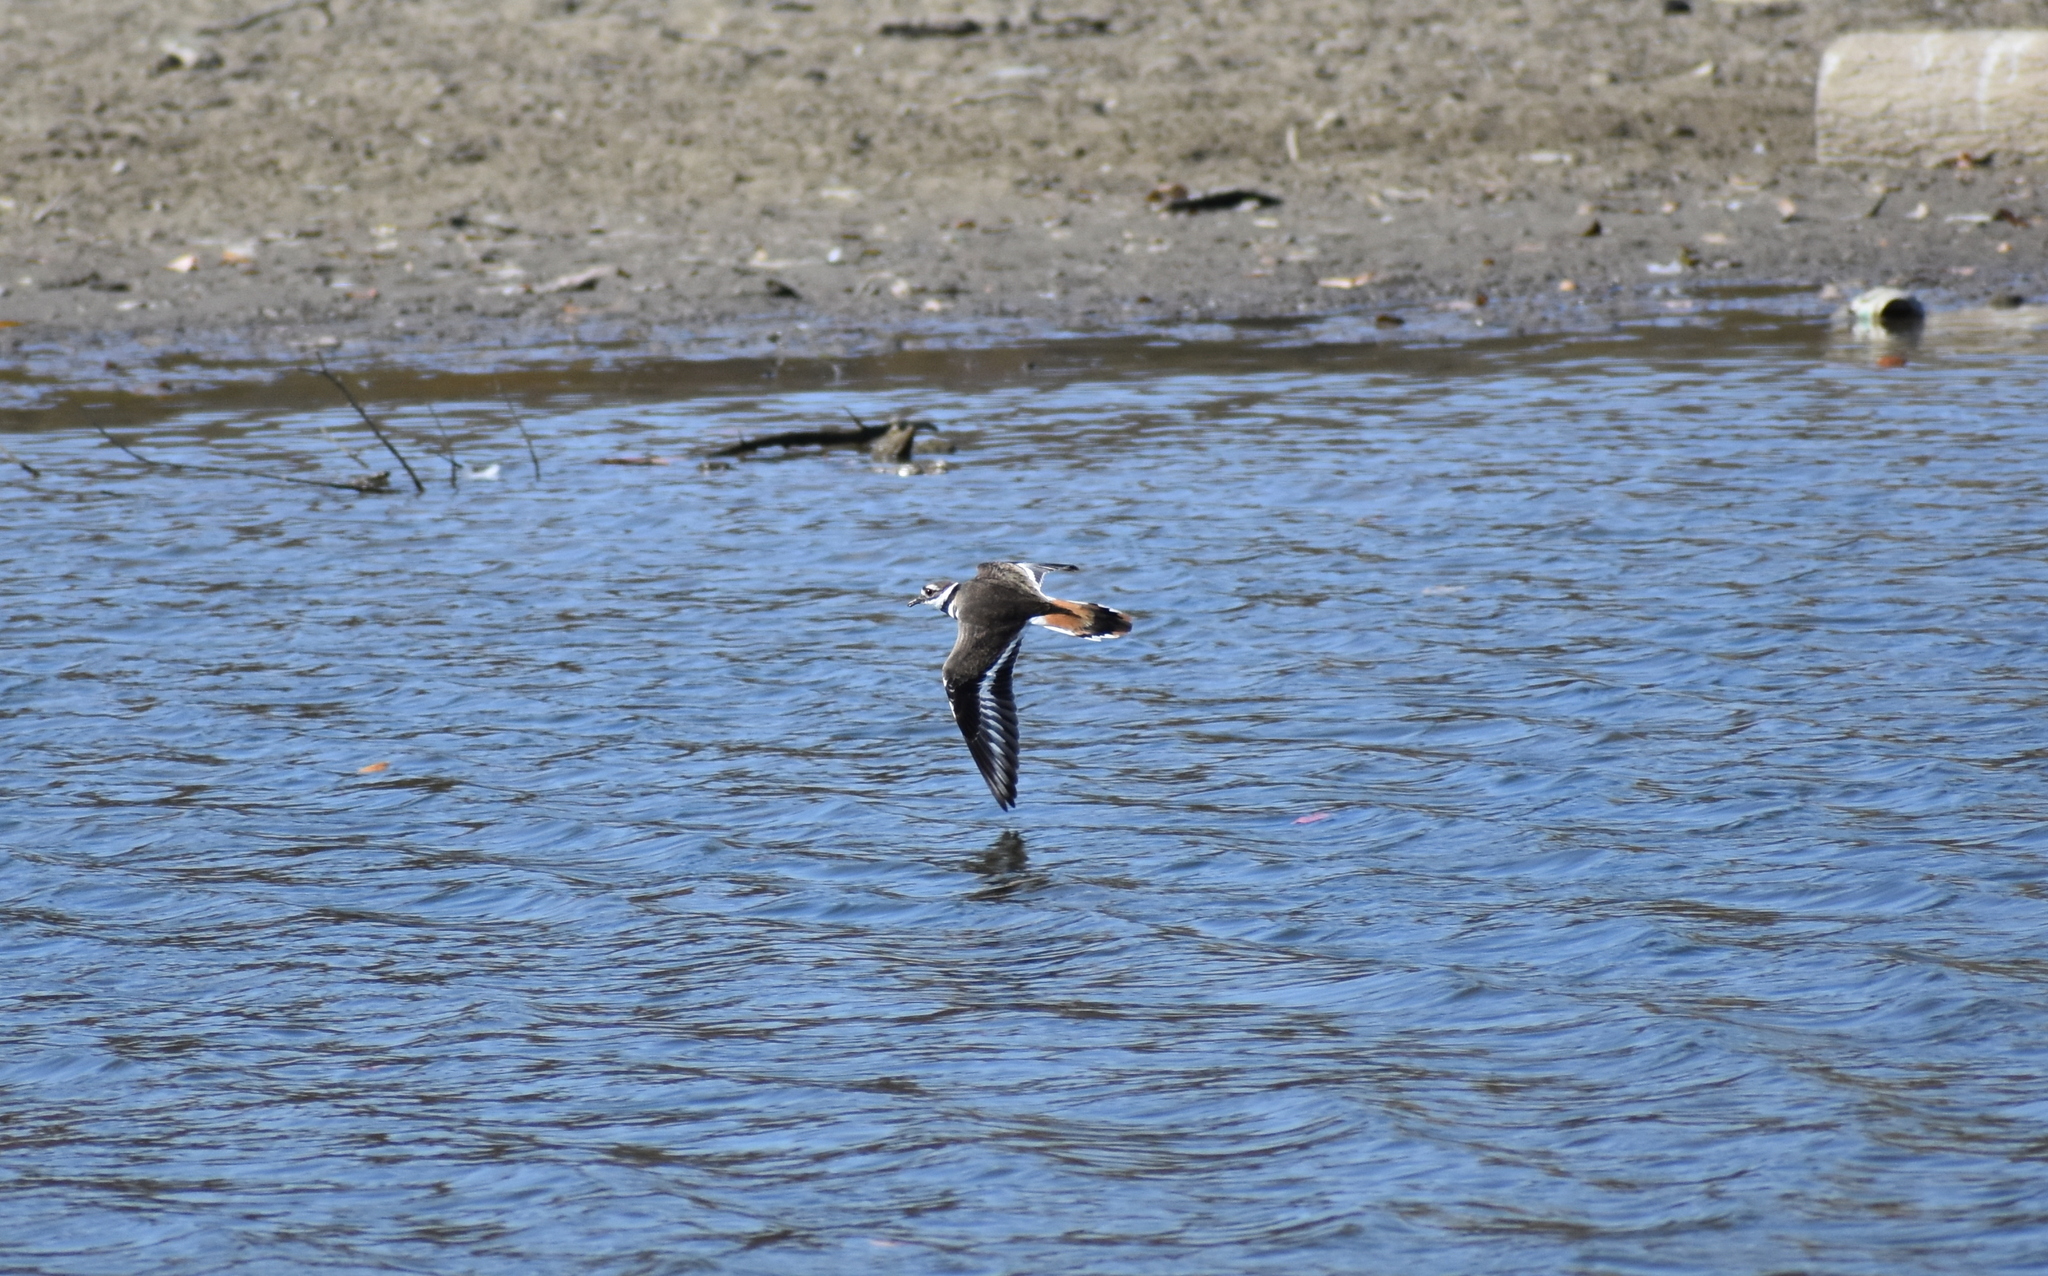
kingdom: Animalia
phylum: Chordata
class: Aves
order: Charadriiformes
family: Charadriidae
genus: Charadrius
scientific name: Charadrius vociferus
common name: Killdeer
